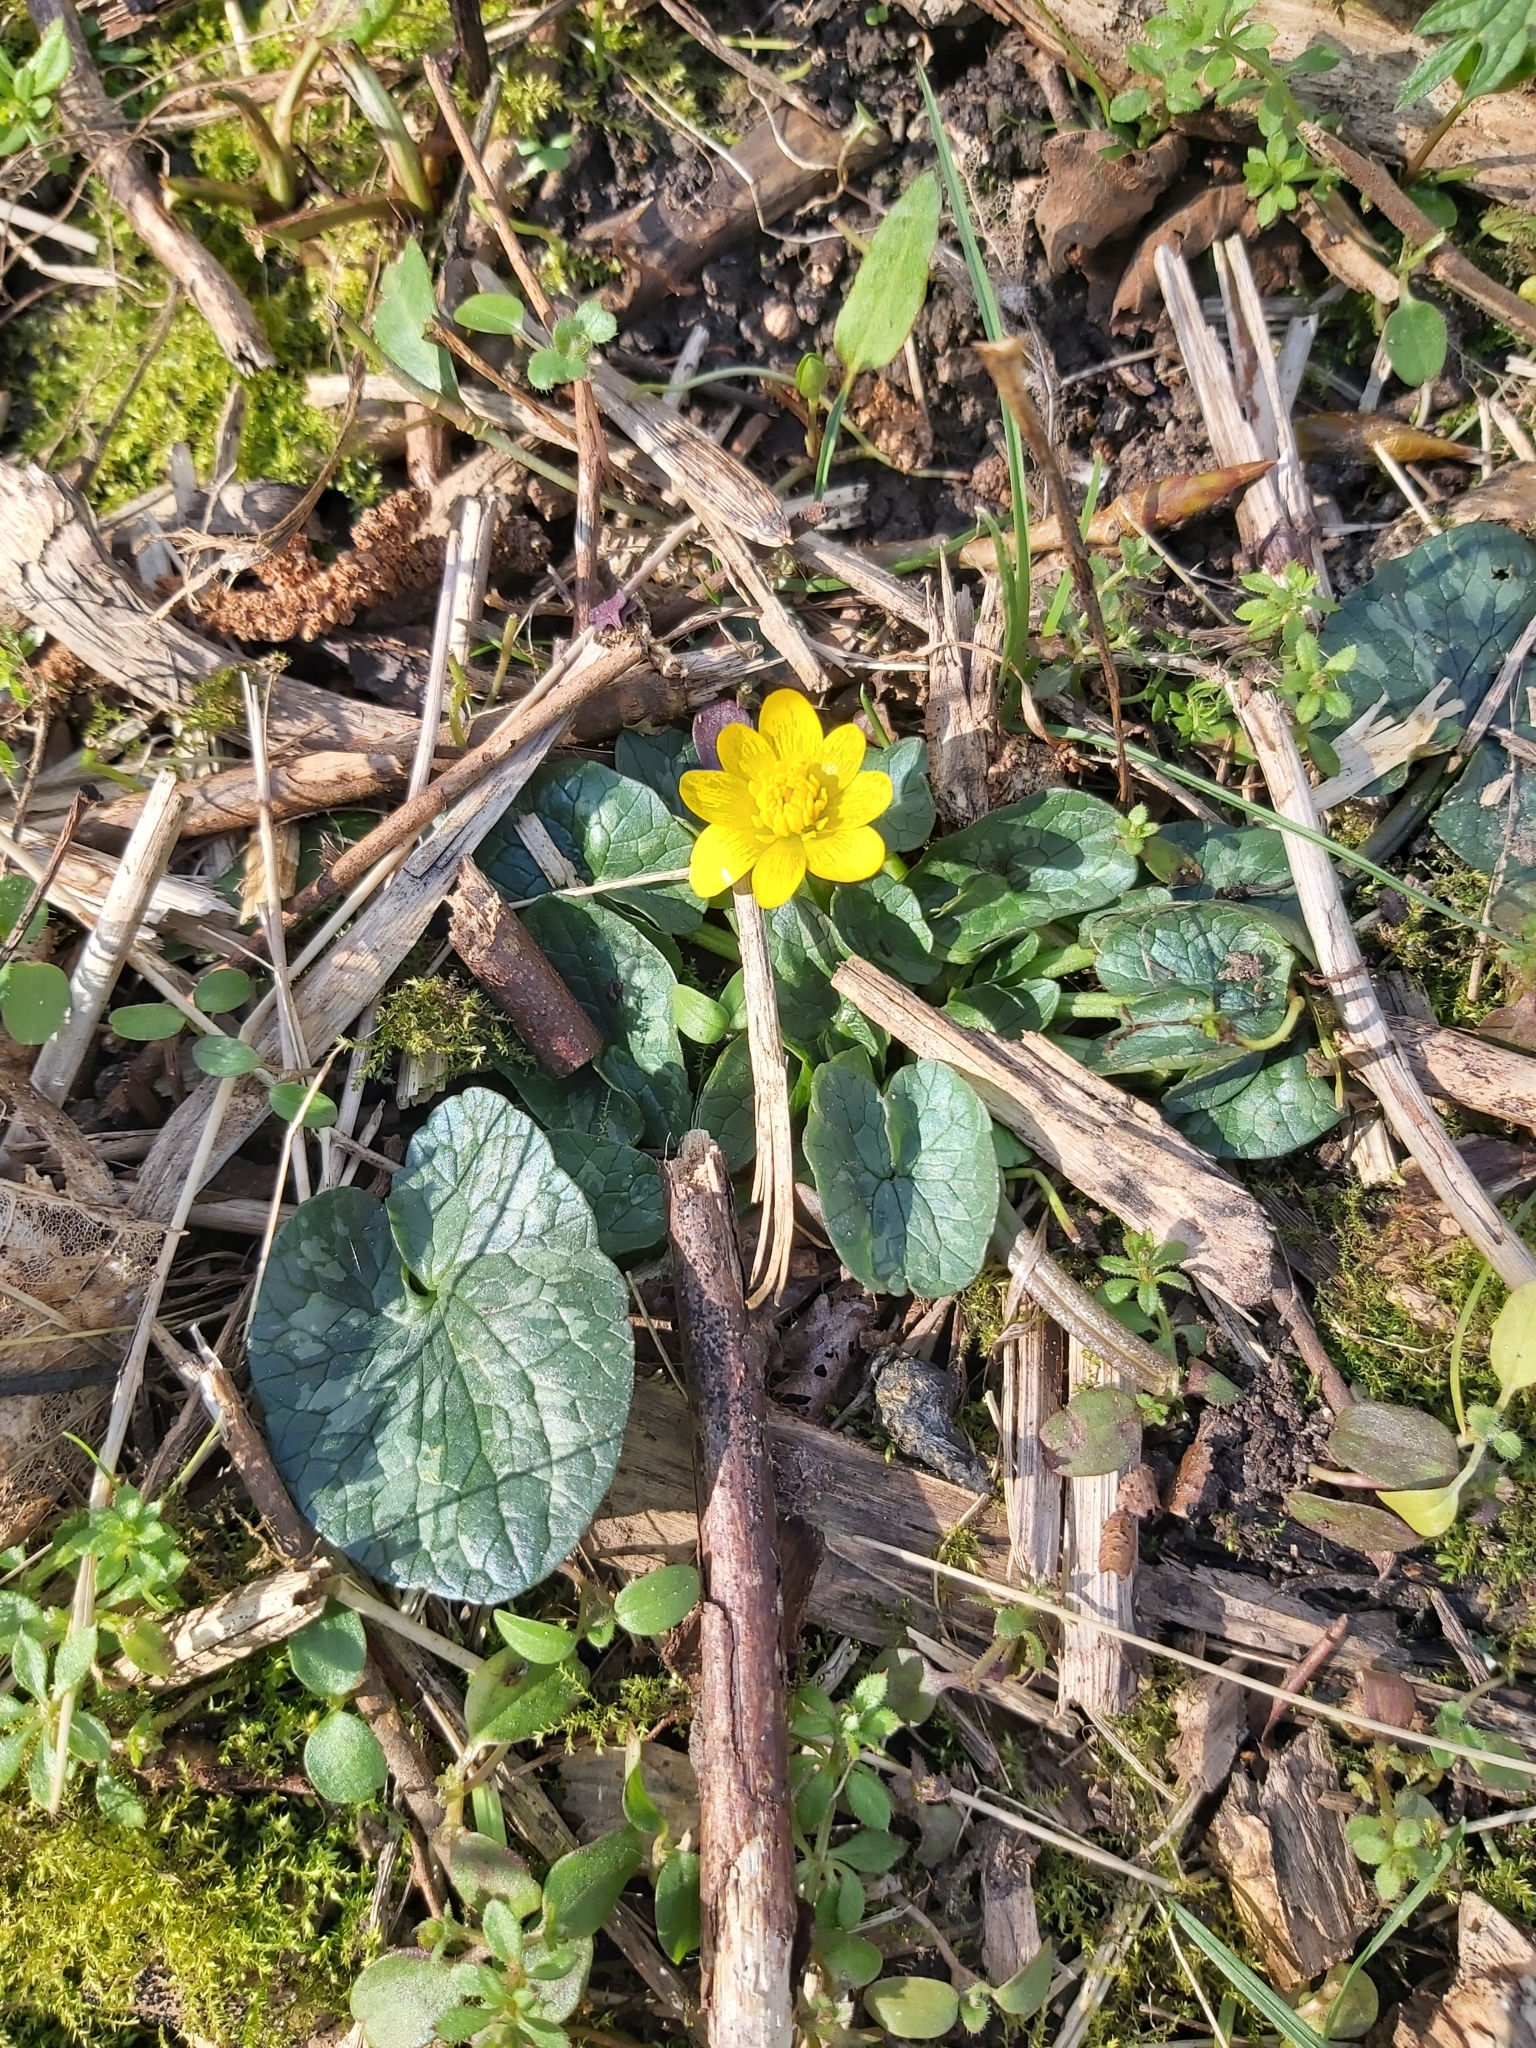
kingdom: Plantae
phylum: Tracheophyta
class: Magnoliopsida
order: Ranunculales
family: Ranunculaceae
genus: Ficaria
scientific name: Ficaria verna
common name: Lesser celandine
